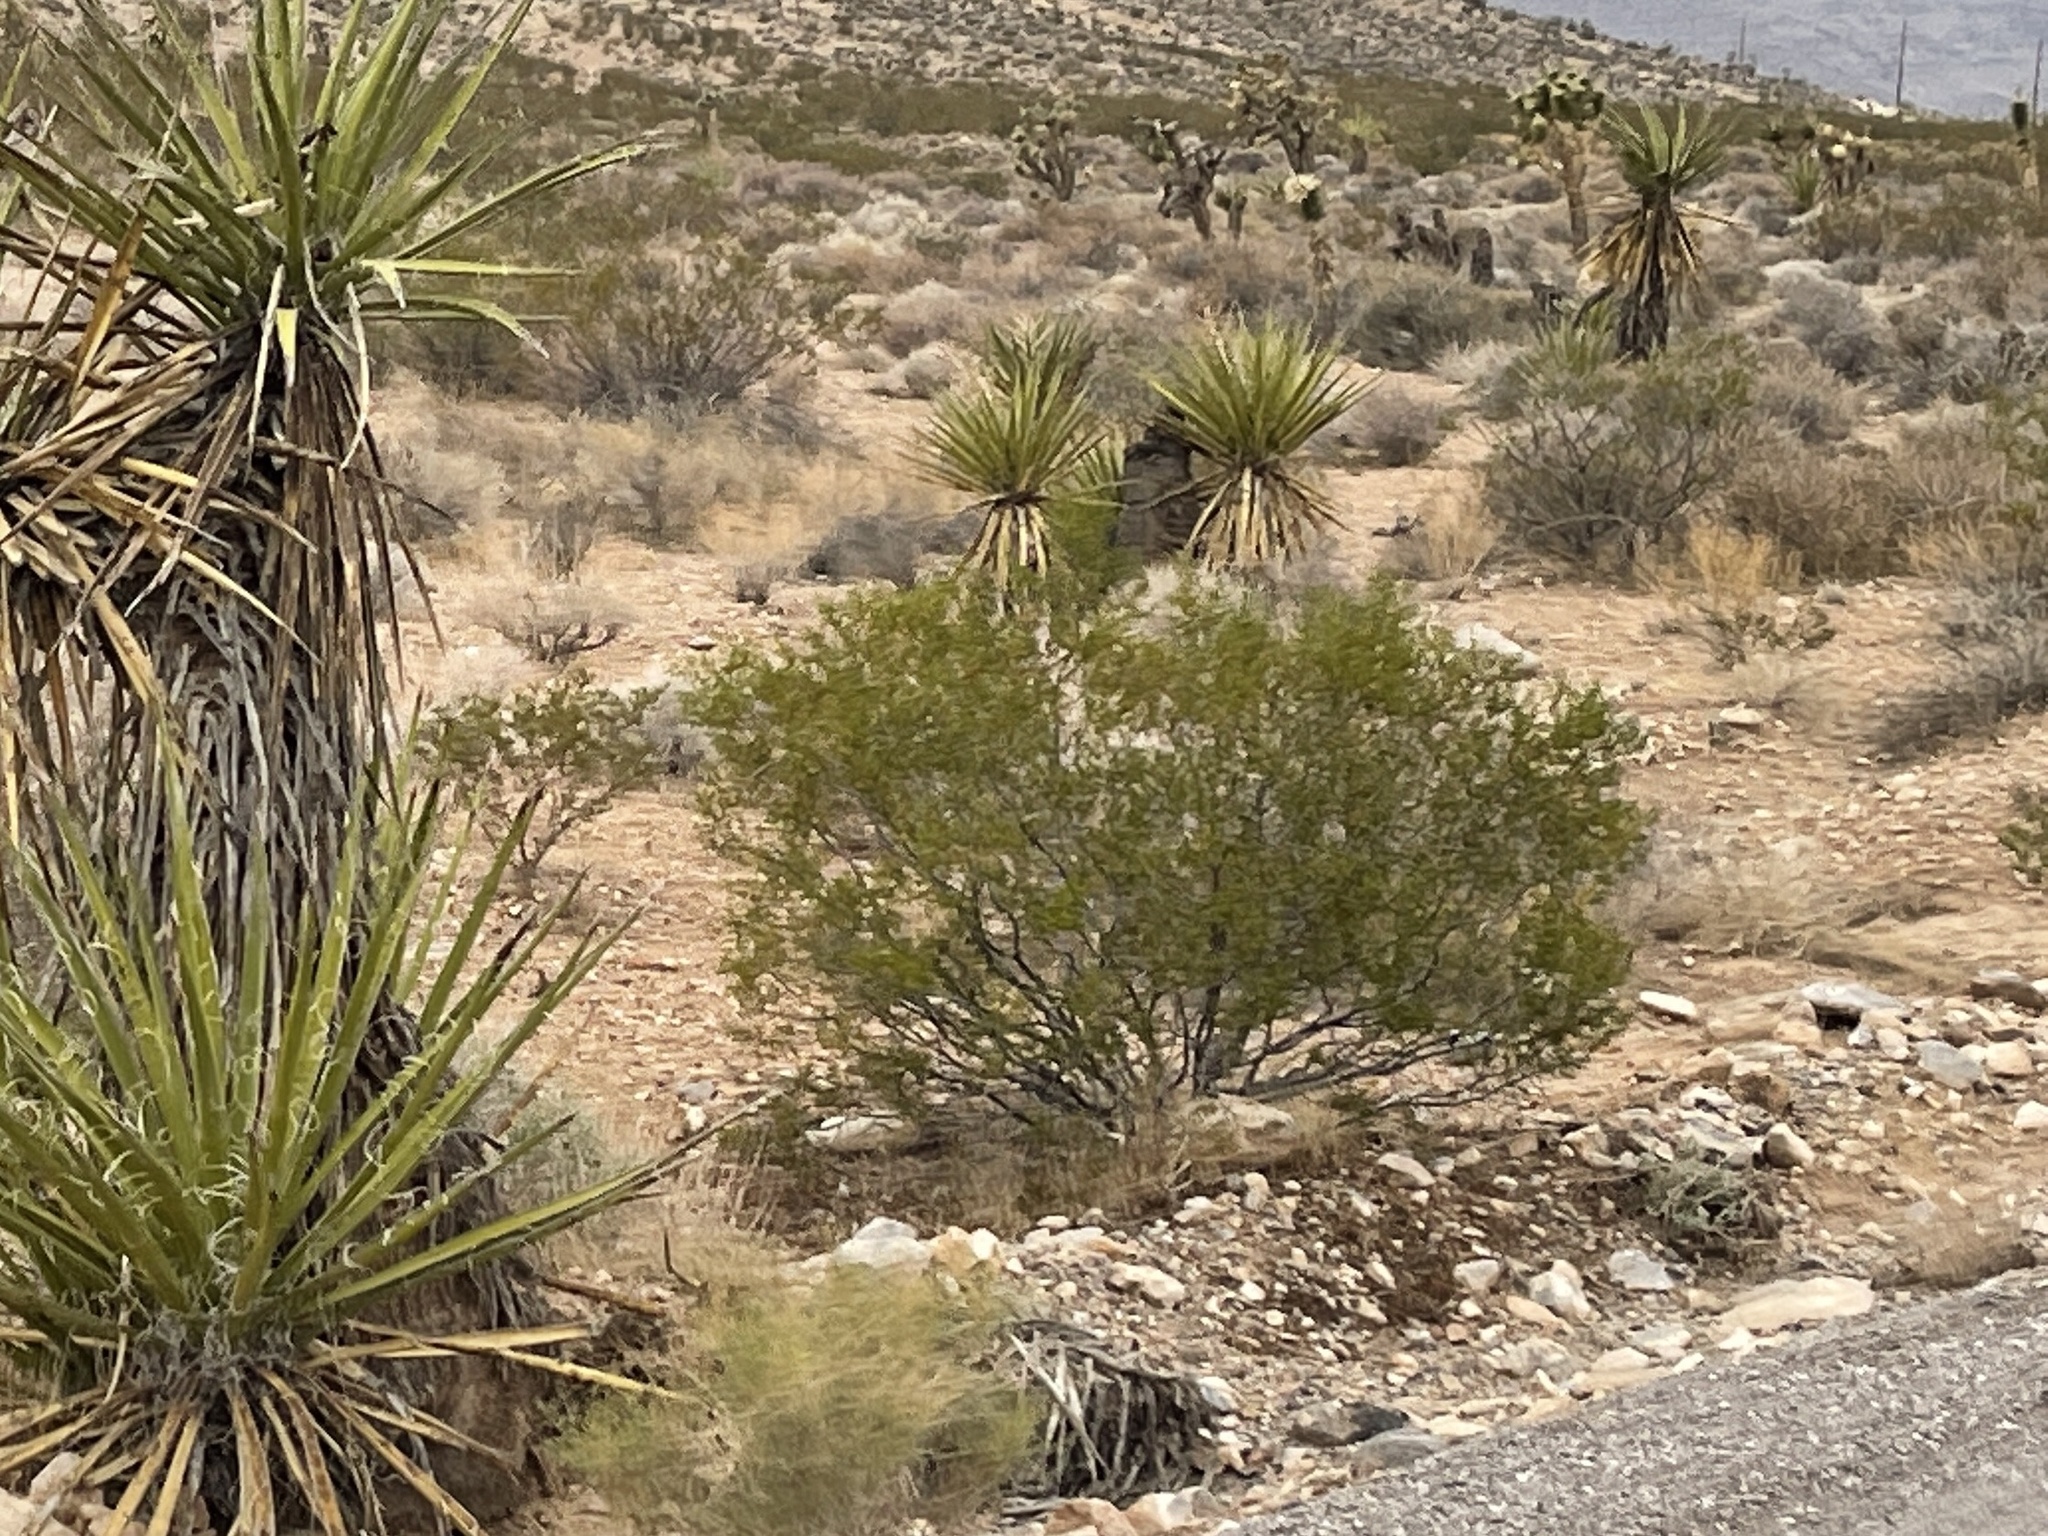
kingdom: Plantae
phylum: Tracheophyta
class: Magnoliopsida
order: Zygophyllales
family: Zygophyllaceae
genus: Larrea
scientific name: Larrea tridentata
